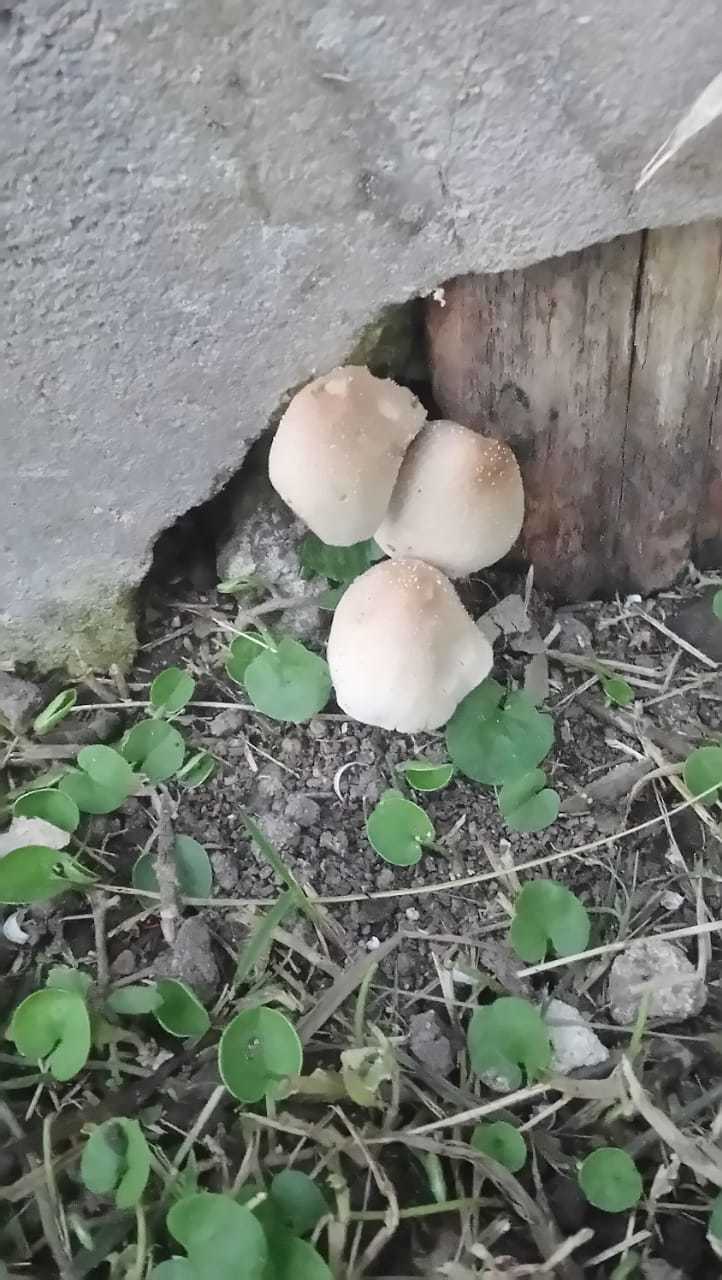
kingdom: Fungi
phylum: Basidiomycota
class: Agaricomycetes
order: Agaricales
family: Psathyrellaceae
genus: Candolleomyces
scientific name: Candolleomyces candolleanus
